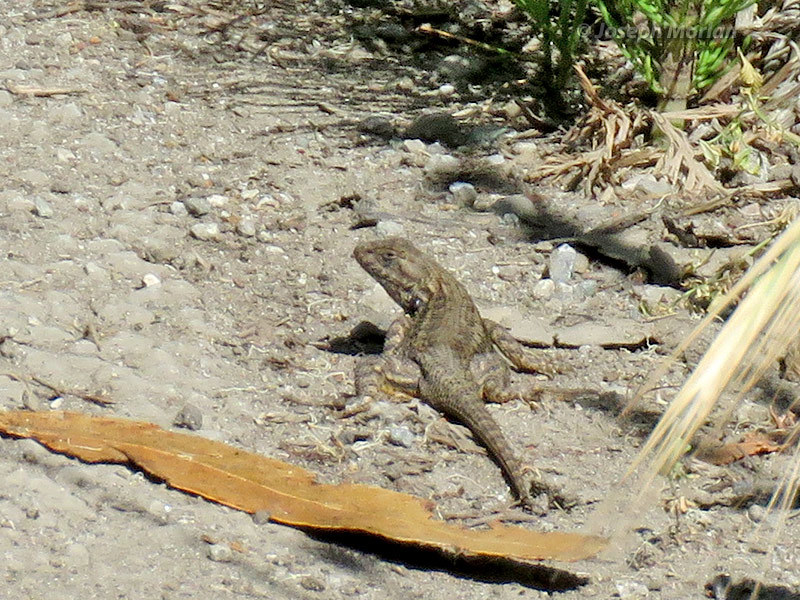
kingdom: Animalia
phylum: Chordata
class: Squamata
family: Phrynosomatidae
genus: Sceloporus
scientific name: Sceloporus occidentalis
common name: Western fence lizard
